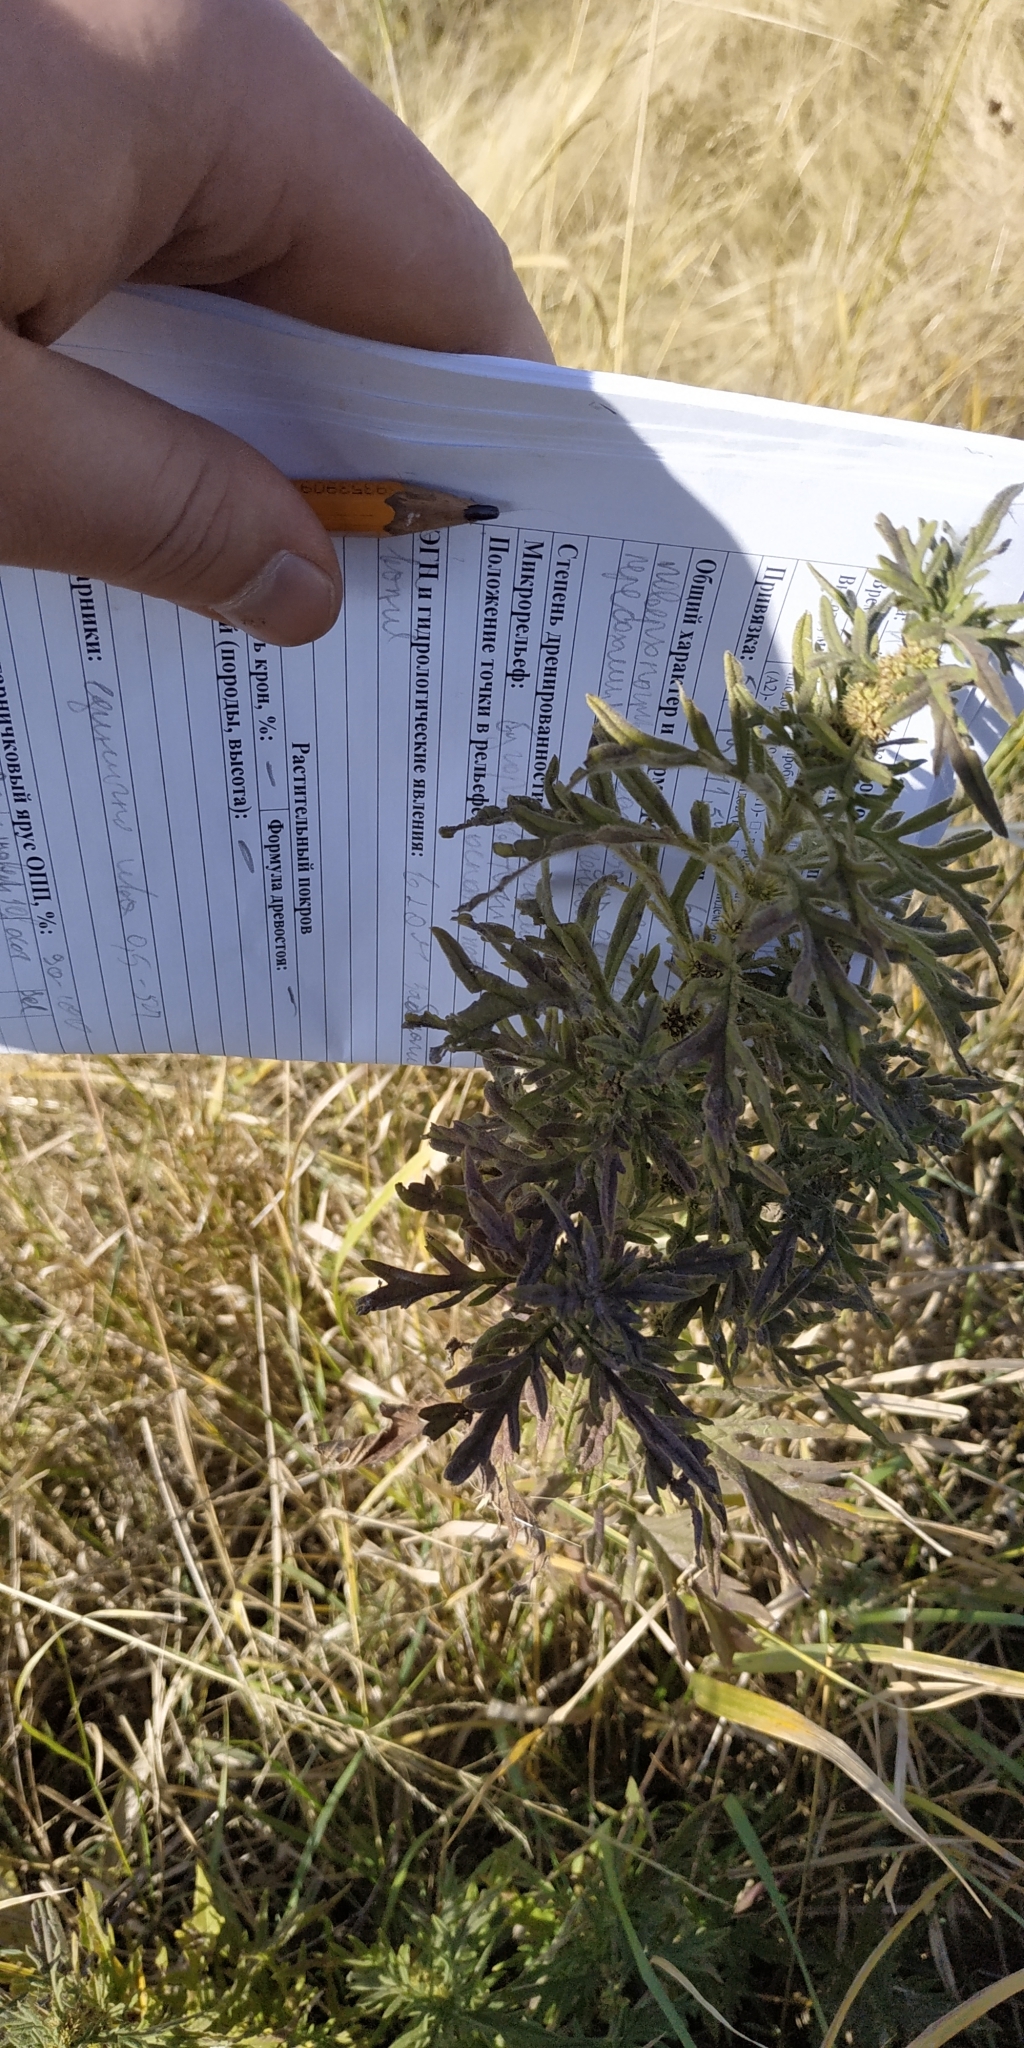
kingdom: Plantae
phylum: Tracheophyta
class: Magnoliopsida
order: Lamiales
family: Lamiaceae
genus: Lycopus
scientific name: Lycopus exaltatus
